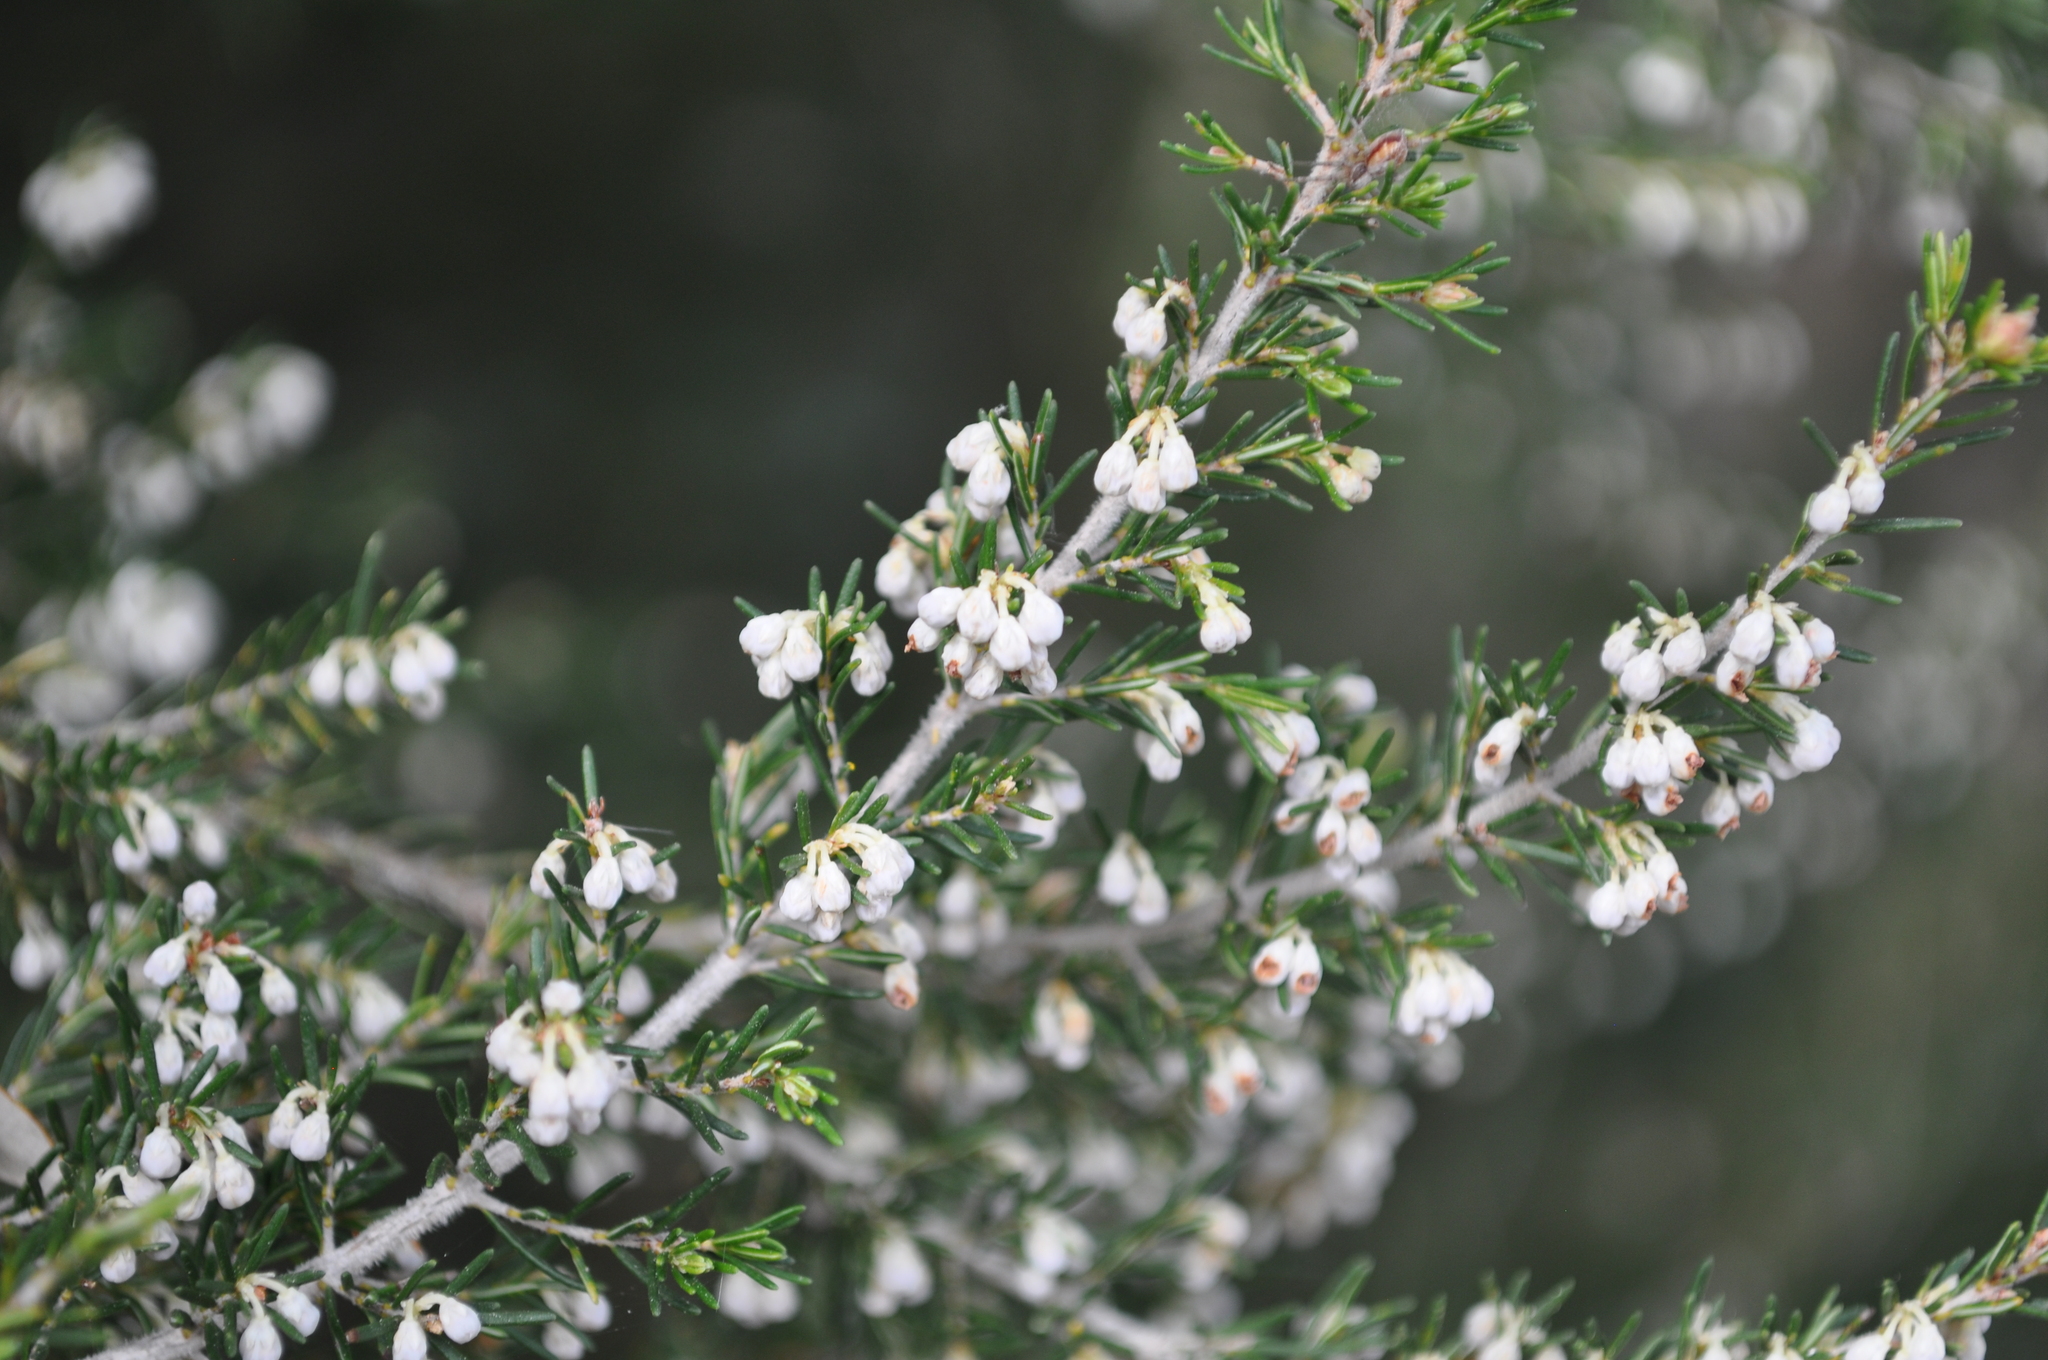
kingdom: Plantae
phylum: Tracheophyta
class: Magnoliopsida
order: Ericales
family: Ericaceae
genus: Erica
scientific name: Erica arborea
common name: Tree heath
